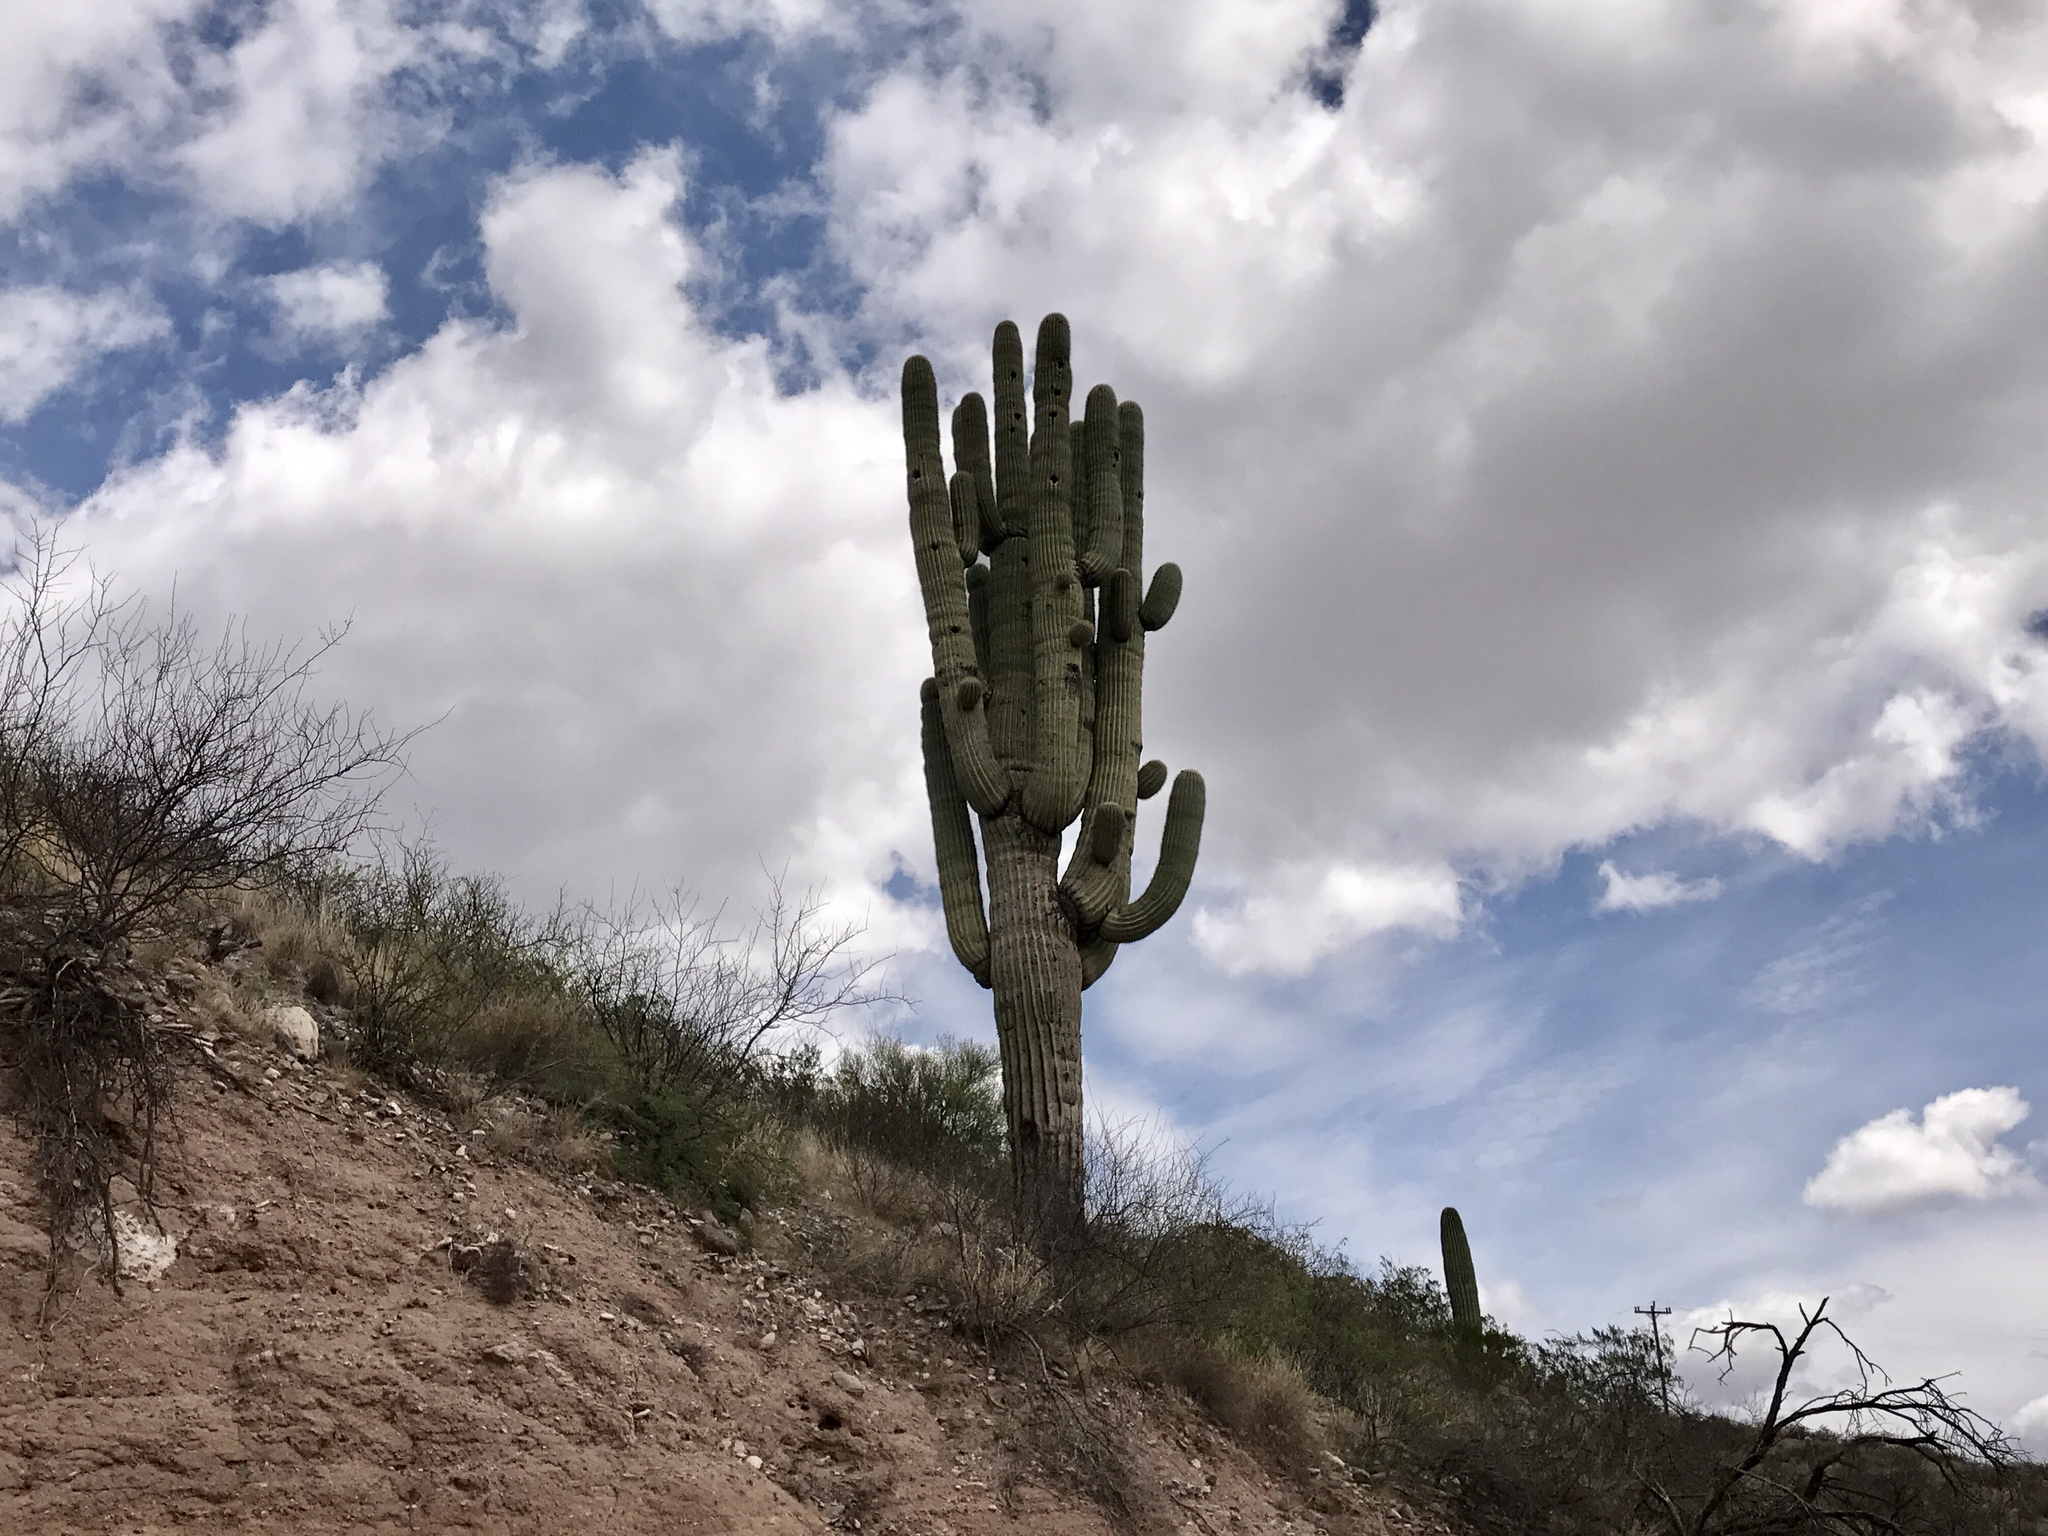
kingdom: Plantae
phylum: Tracheophyta
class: Magnoliopsida
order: Caryophyllales
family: Cactaceae
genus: Carnegiea
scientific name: Carnegiea gigantea
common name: Saguaro
